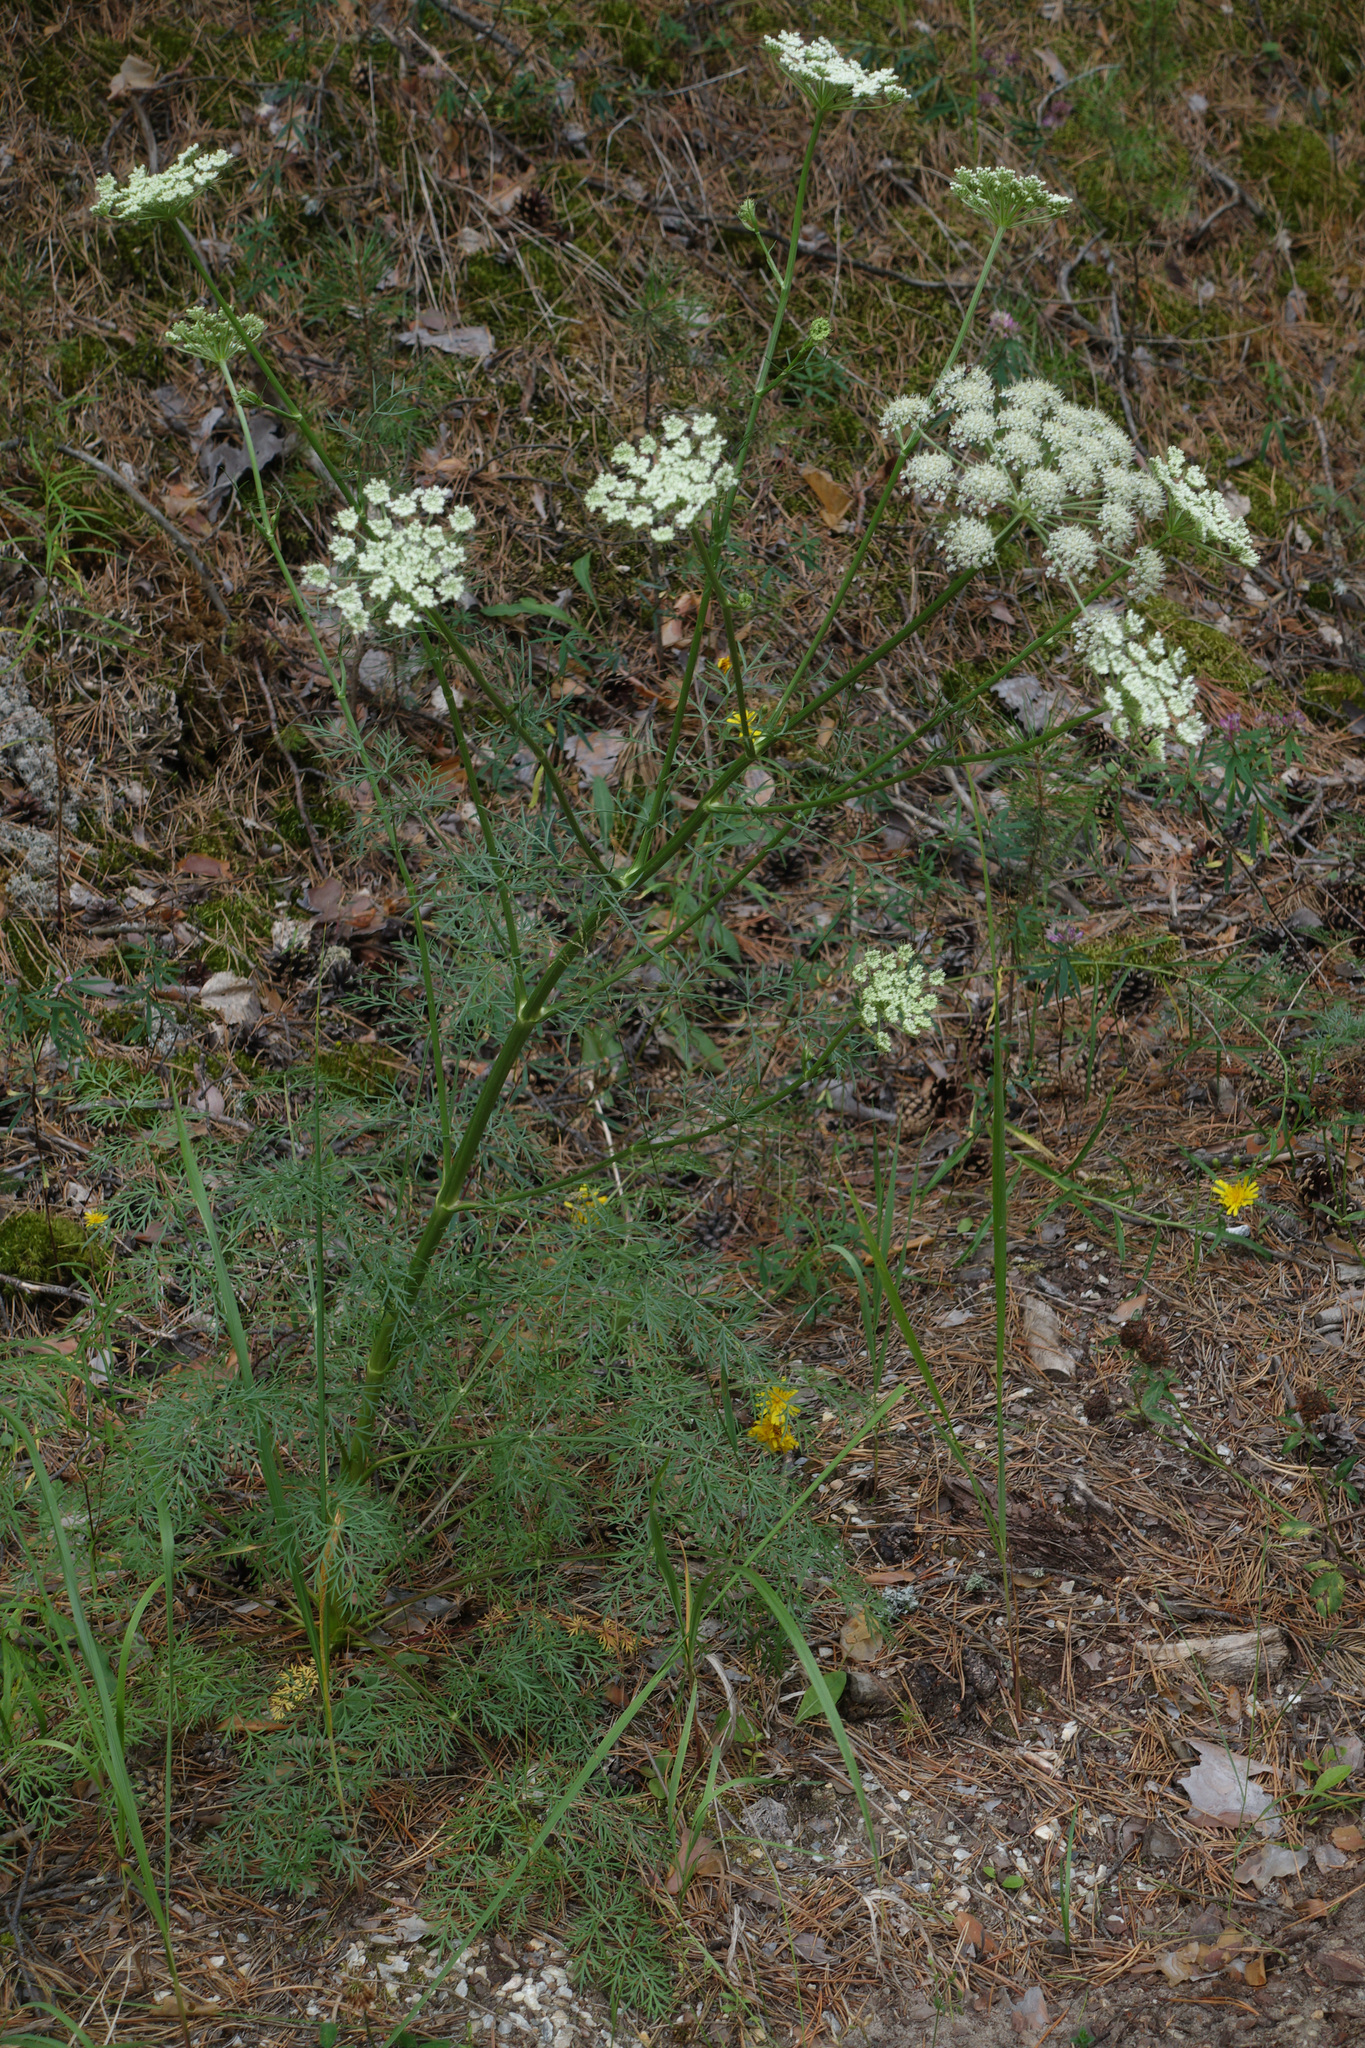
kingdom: Plantae
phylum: Tracheophyta
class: Magnoliopsida
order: Apiales
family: Apiaceae
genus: Kitagawia
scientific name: Kitagawia baicalensis
